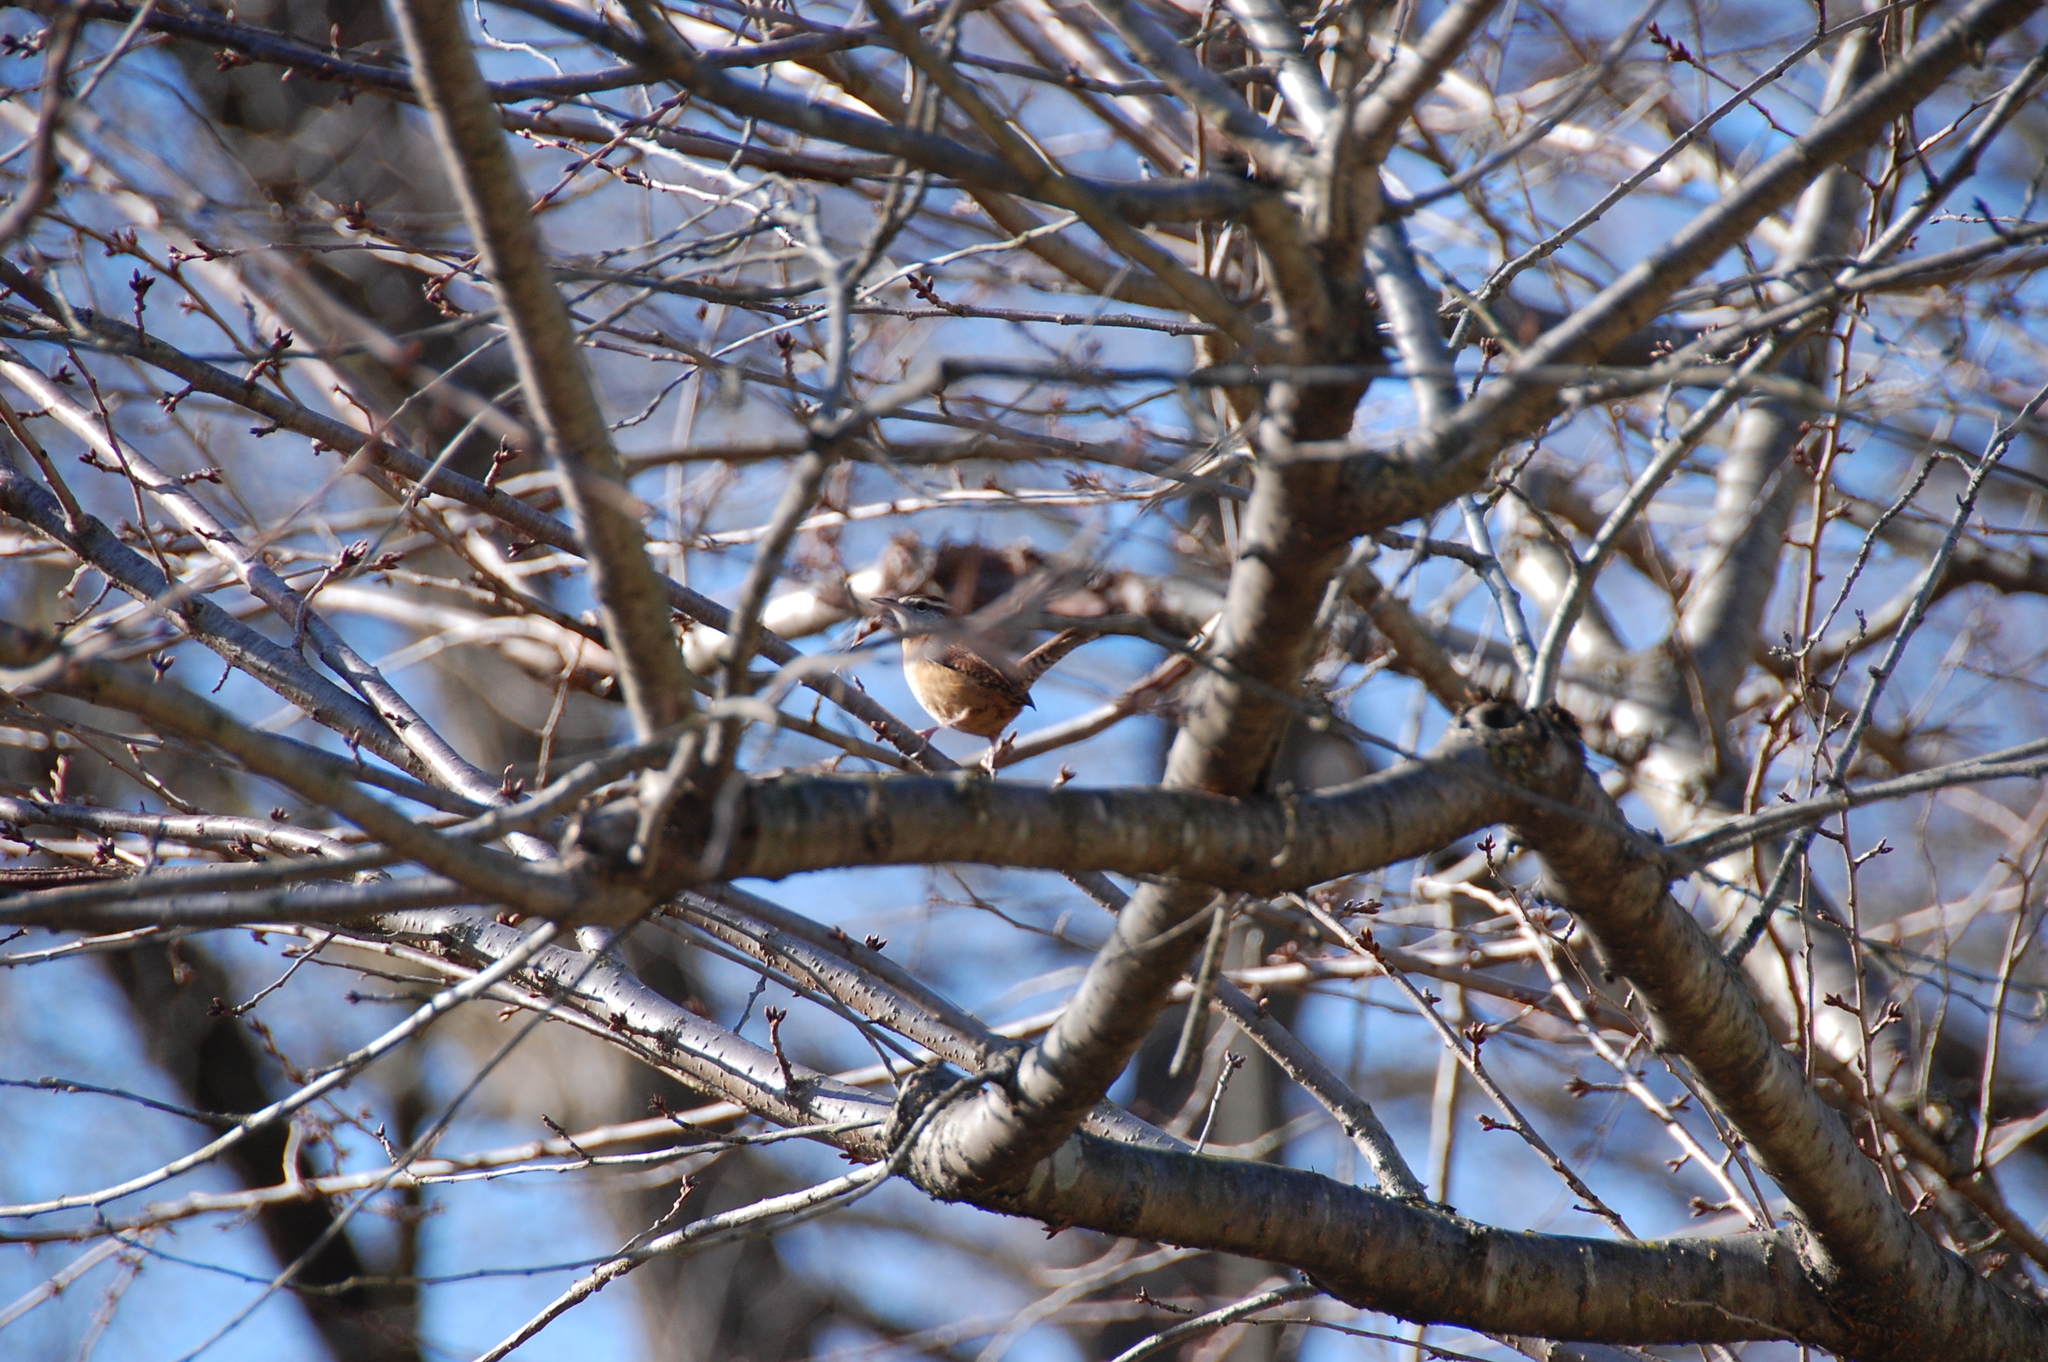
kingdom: Animalia
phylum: Chordata
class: Aves
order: Passeriformes
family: Troglodytidae
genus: Thryothorus
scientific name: Thryothorus ludovicianus
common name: Carolina wren
